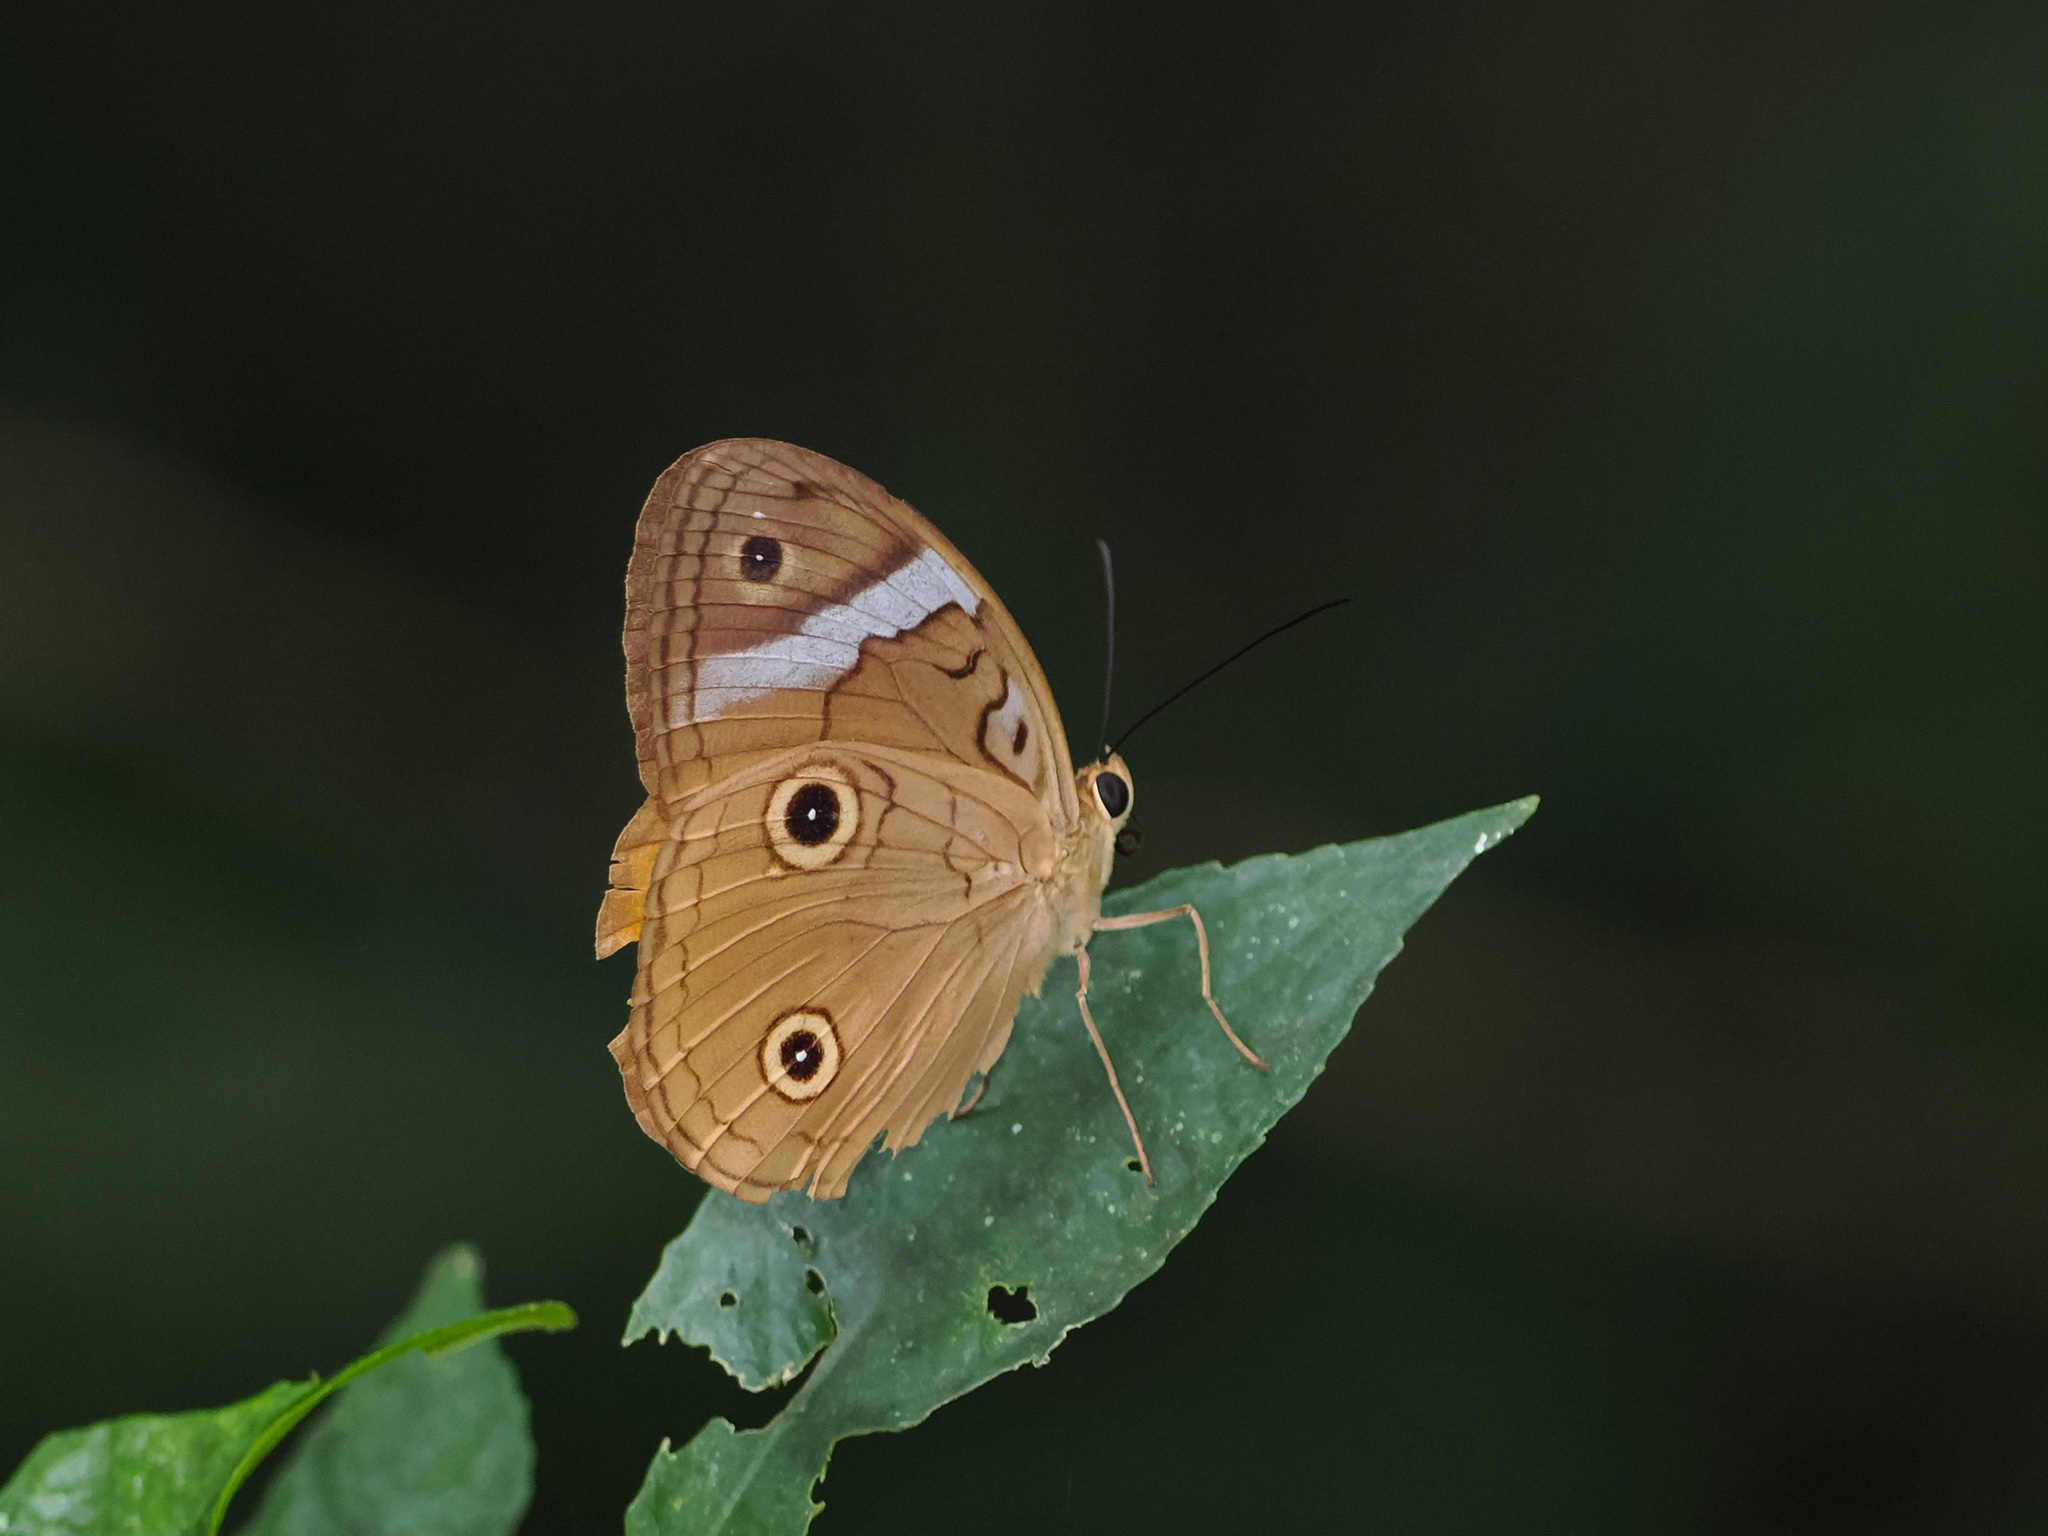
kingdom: Animalia
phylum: Arthropoda
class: Insecta
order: Lepidoptera
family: Nymphalidae
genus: Faunis
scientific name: Faunis menado
